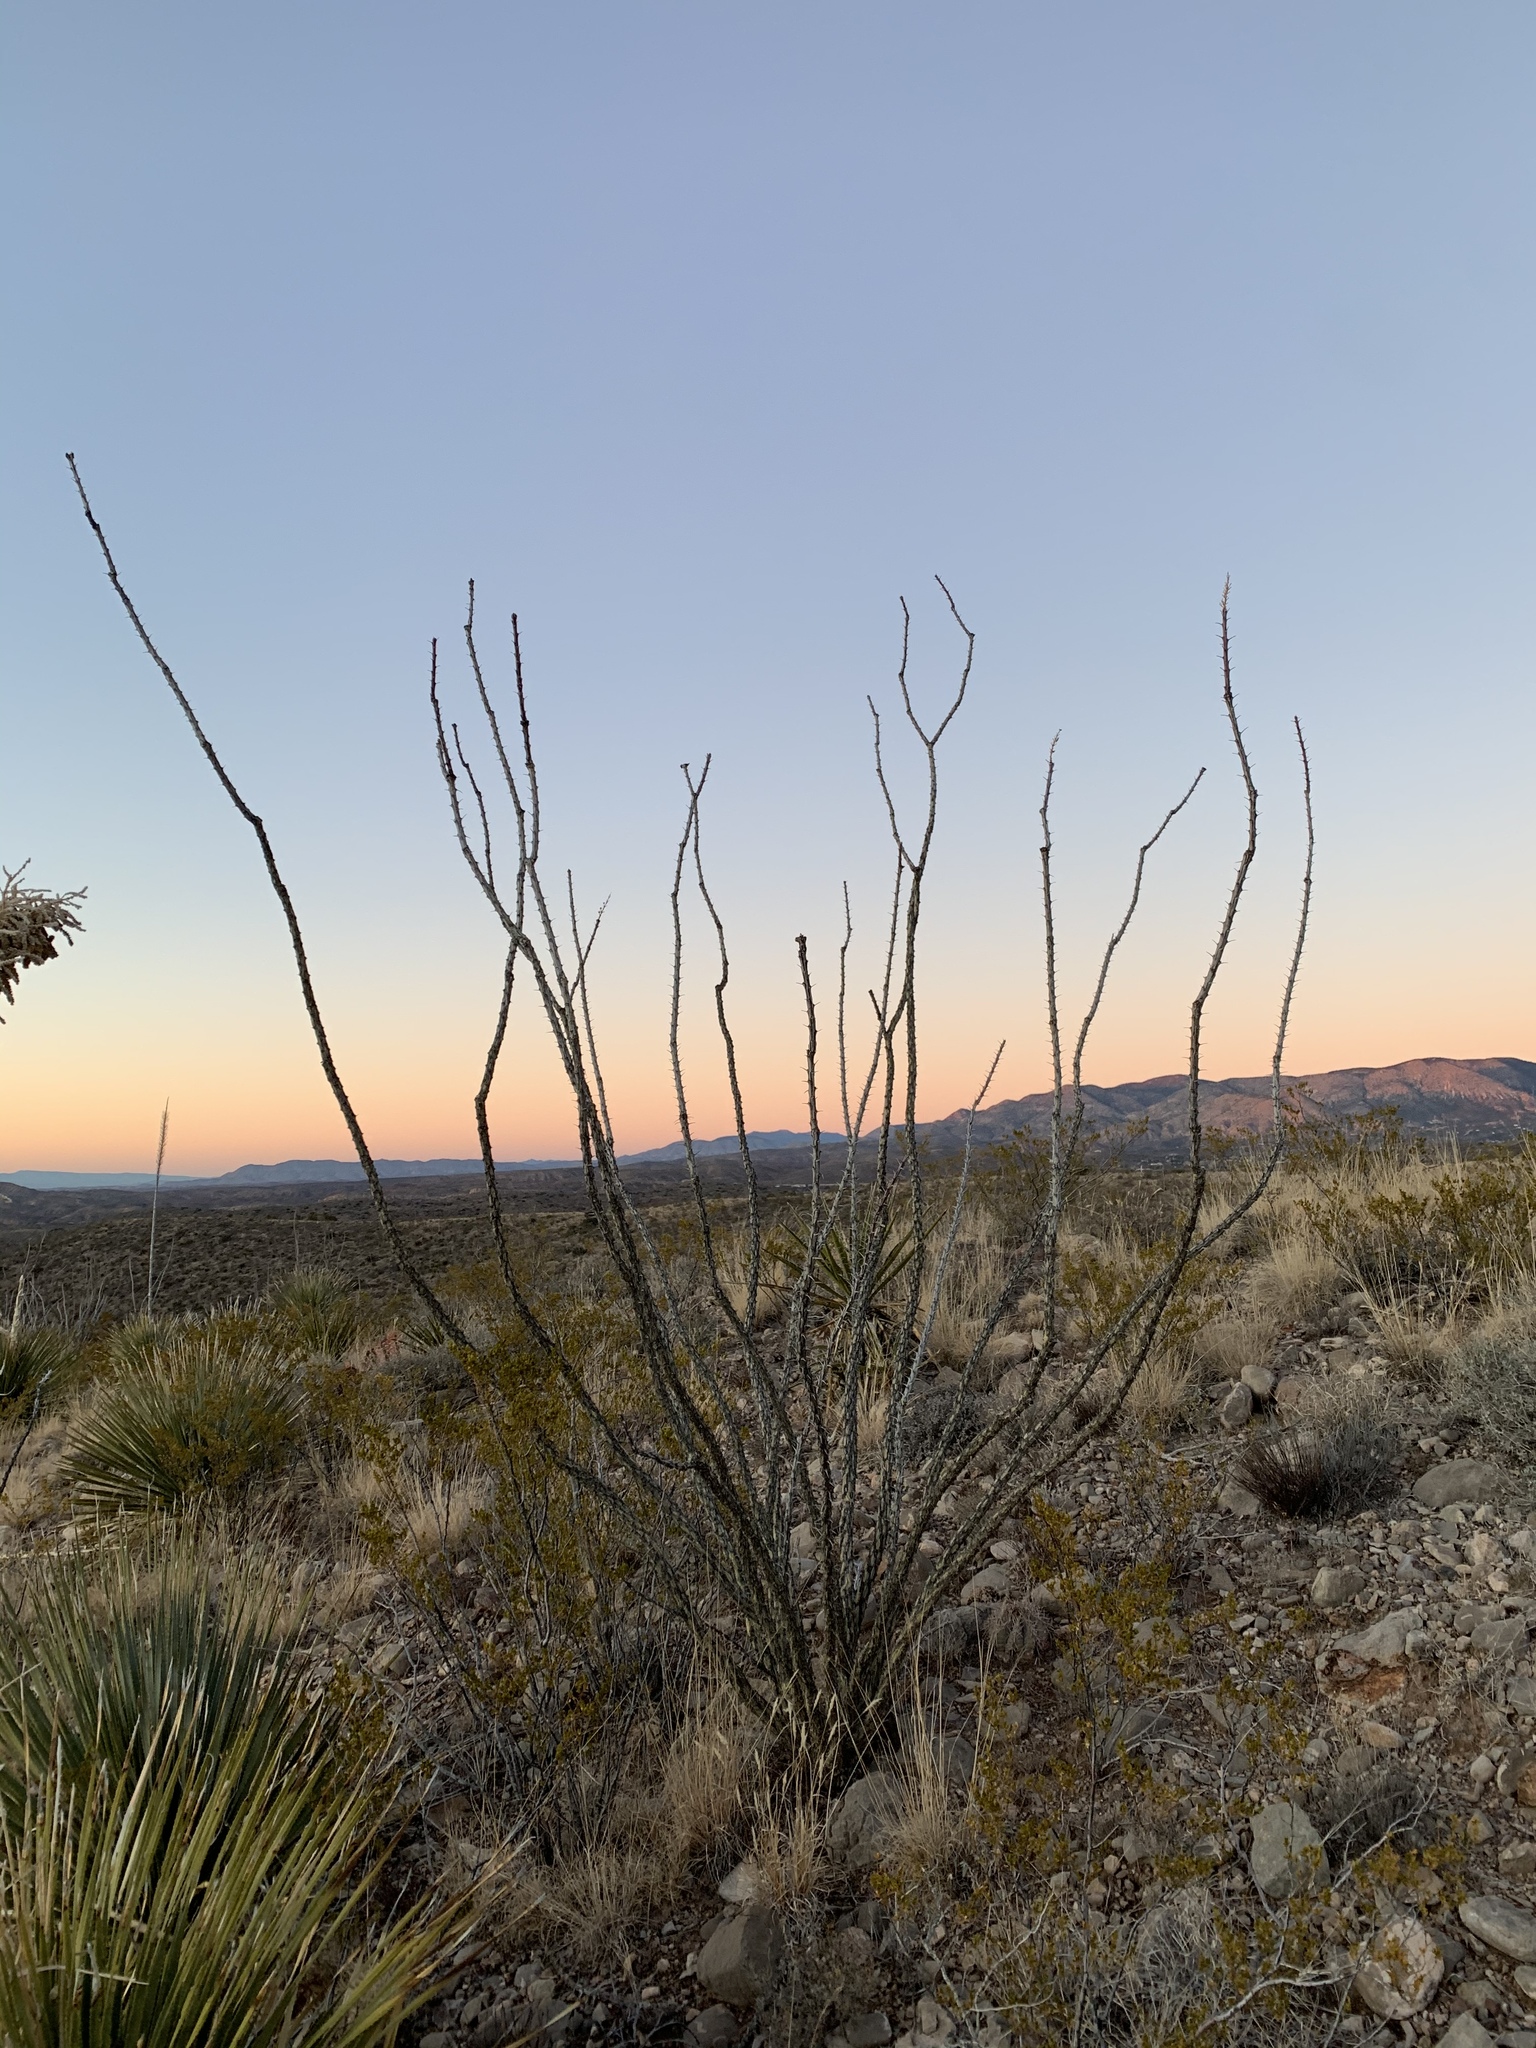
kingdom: Plantae
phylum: Tracheophyta
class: Magnoliopsida
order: Ericales
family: Fouquieriaceae
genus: Fouquieria
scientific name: Fouquieria splendens
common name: Vine-cactus
